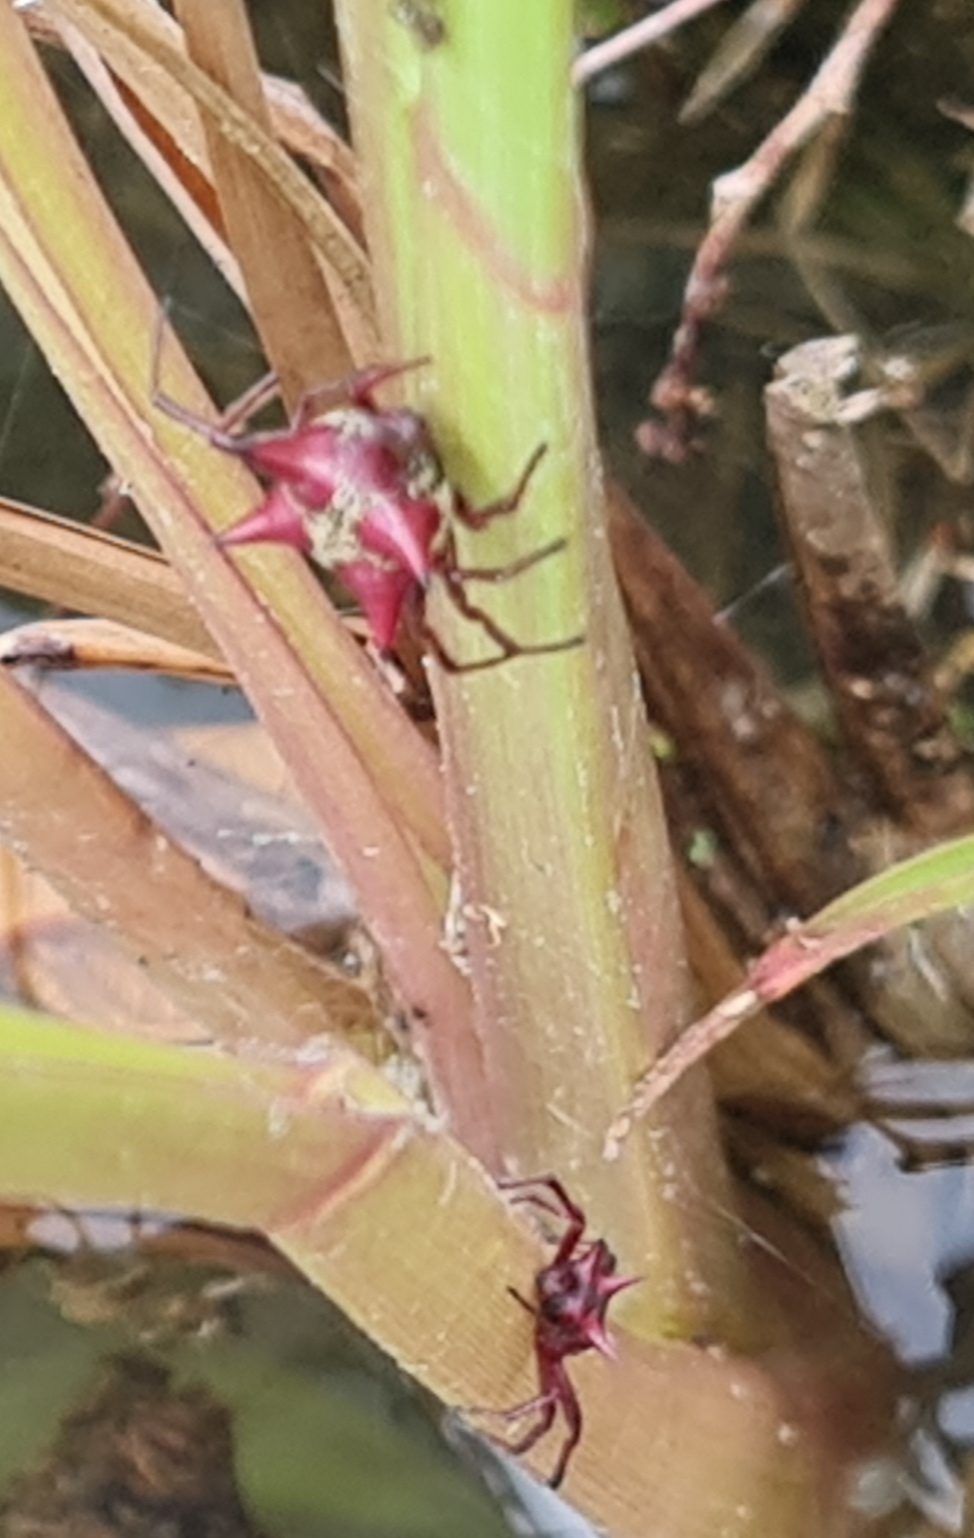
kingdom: Animalia
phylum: Arthropoda
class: Arachnida
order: Araneae
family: Araneidae
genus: Actinosoma
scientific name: Actinosoma pentacanthum
